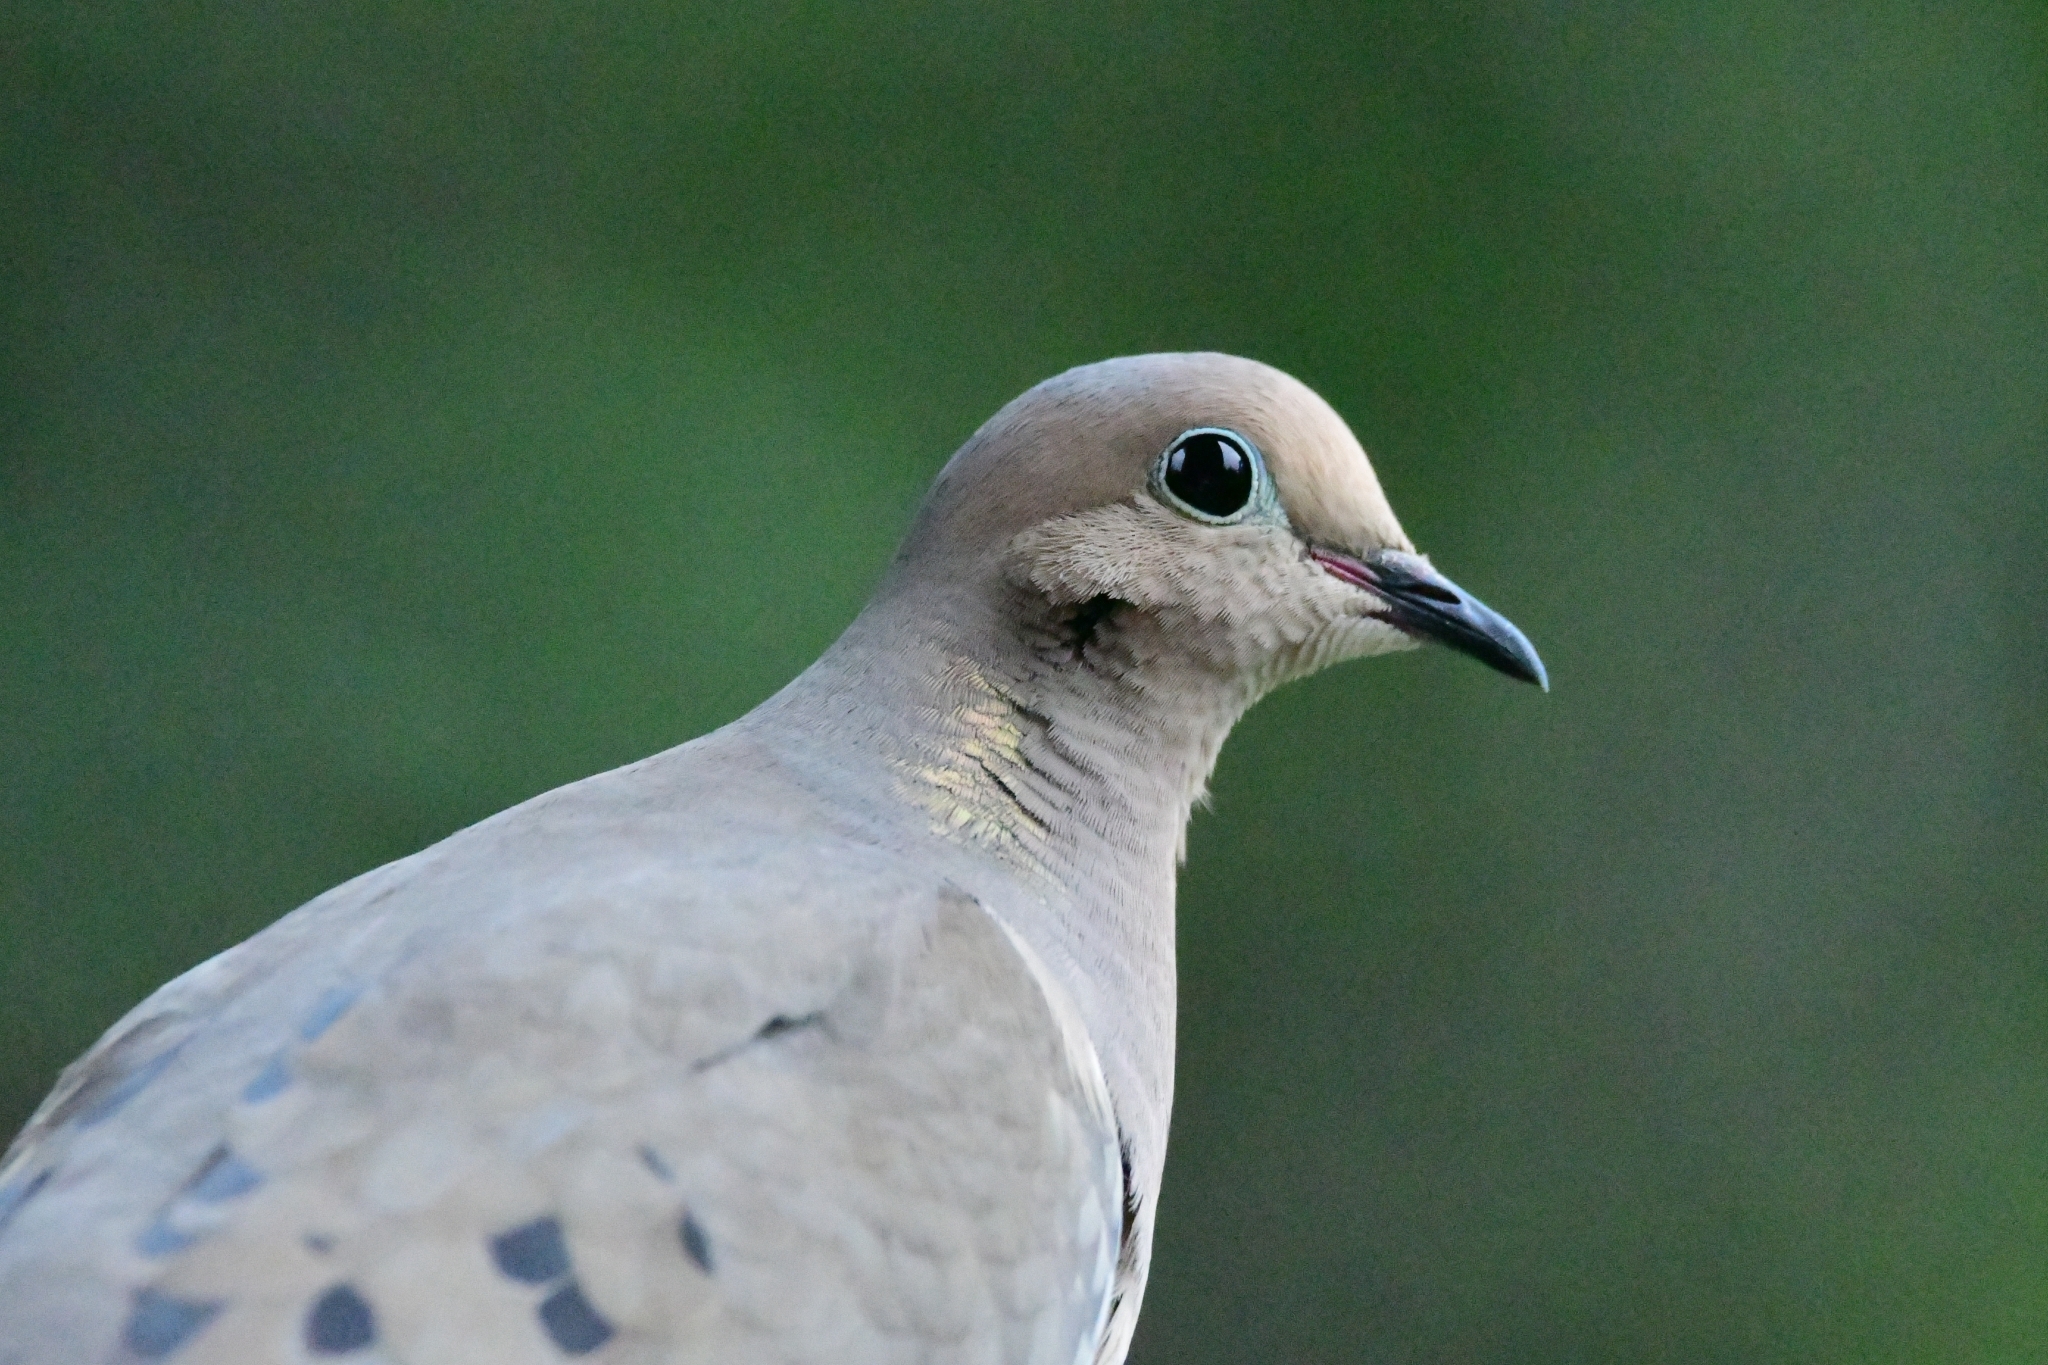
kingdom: Animalia
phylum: Chordata
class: Aves
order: Columbiformes
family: Columbidae
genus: Zenaida
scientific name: Zenaida macroura
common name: Mourning dove
